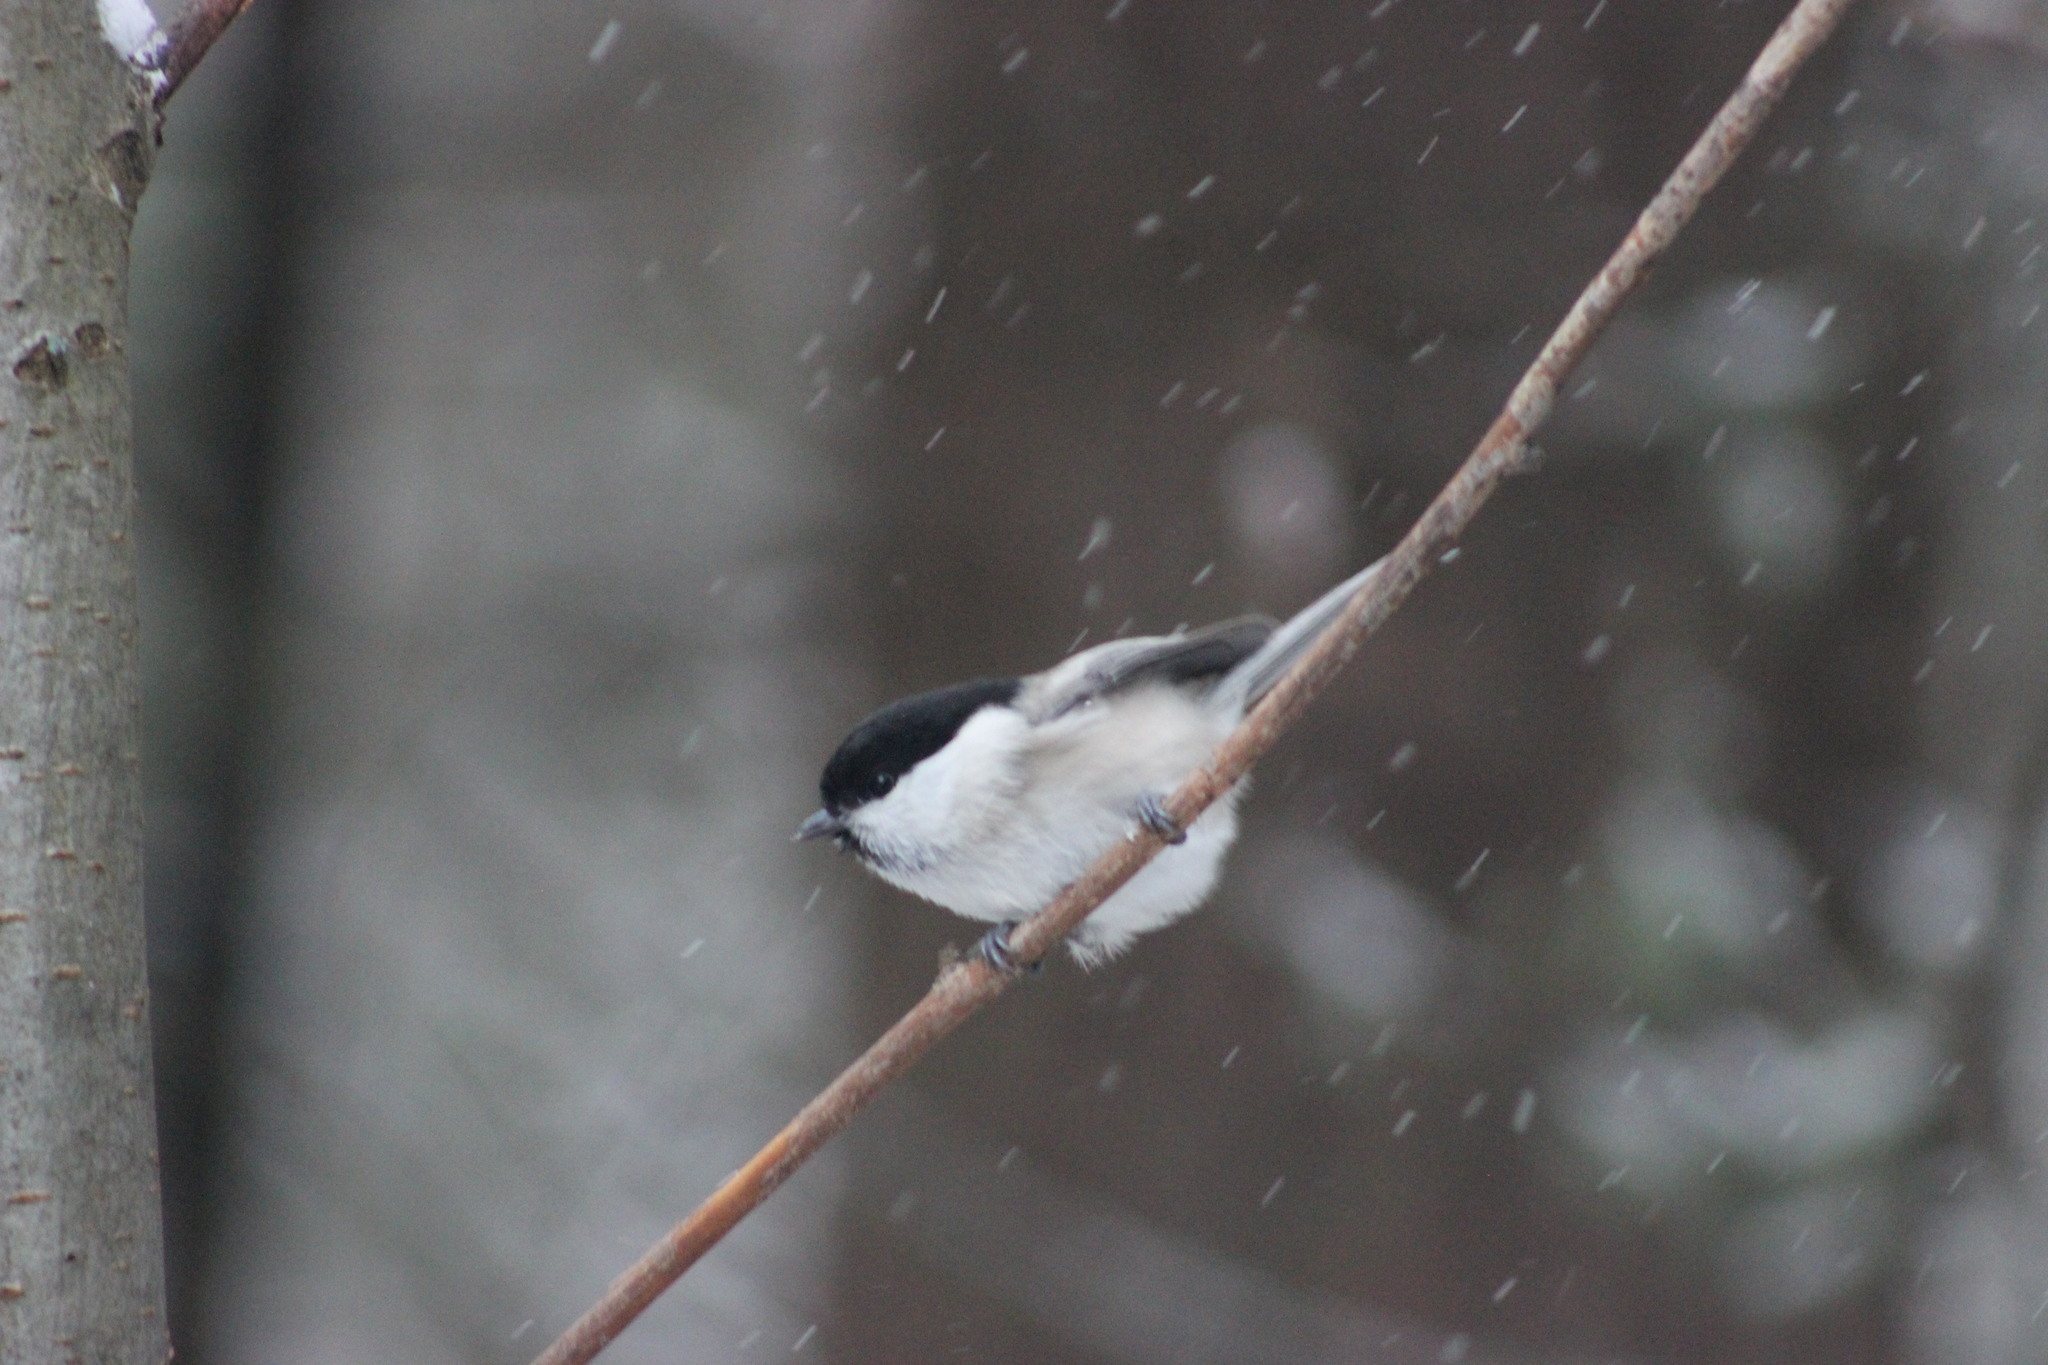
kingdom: Animalia
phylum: Chordata
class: Aves
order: Passeriformes
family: Paridae
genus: Poecile
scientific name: Poecile montanus
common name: Willow tit
